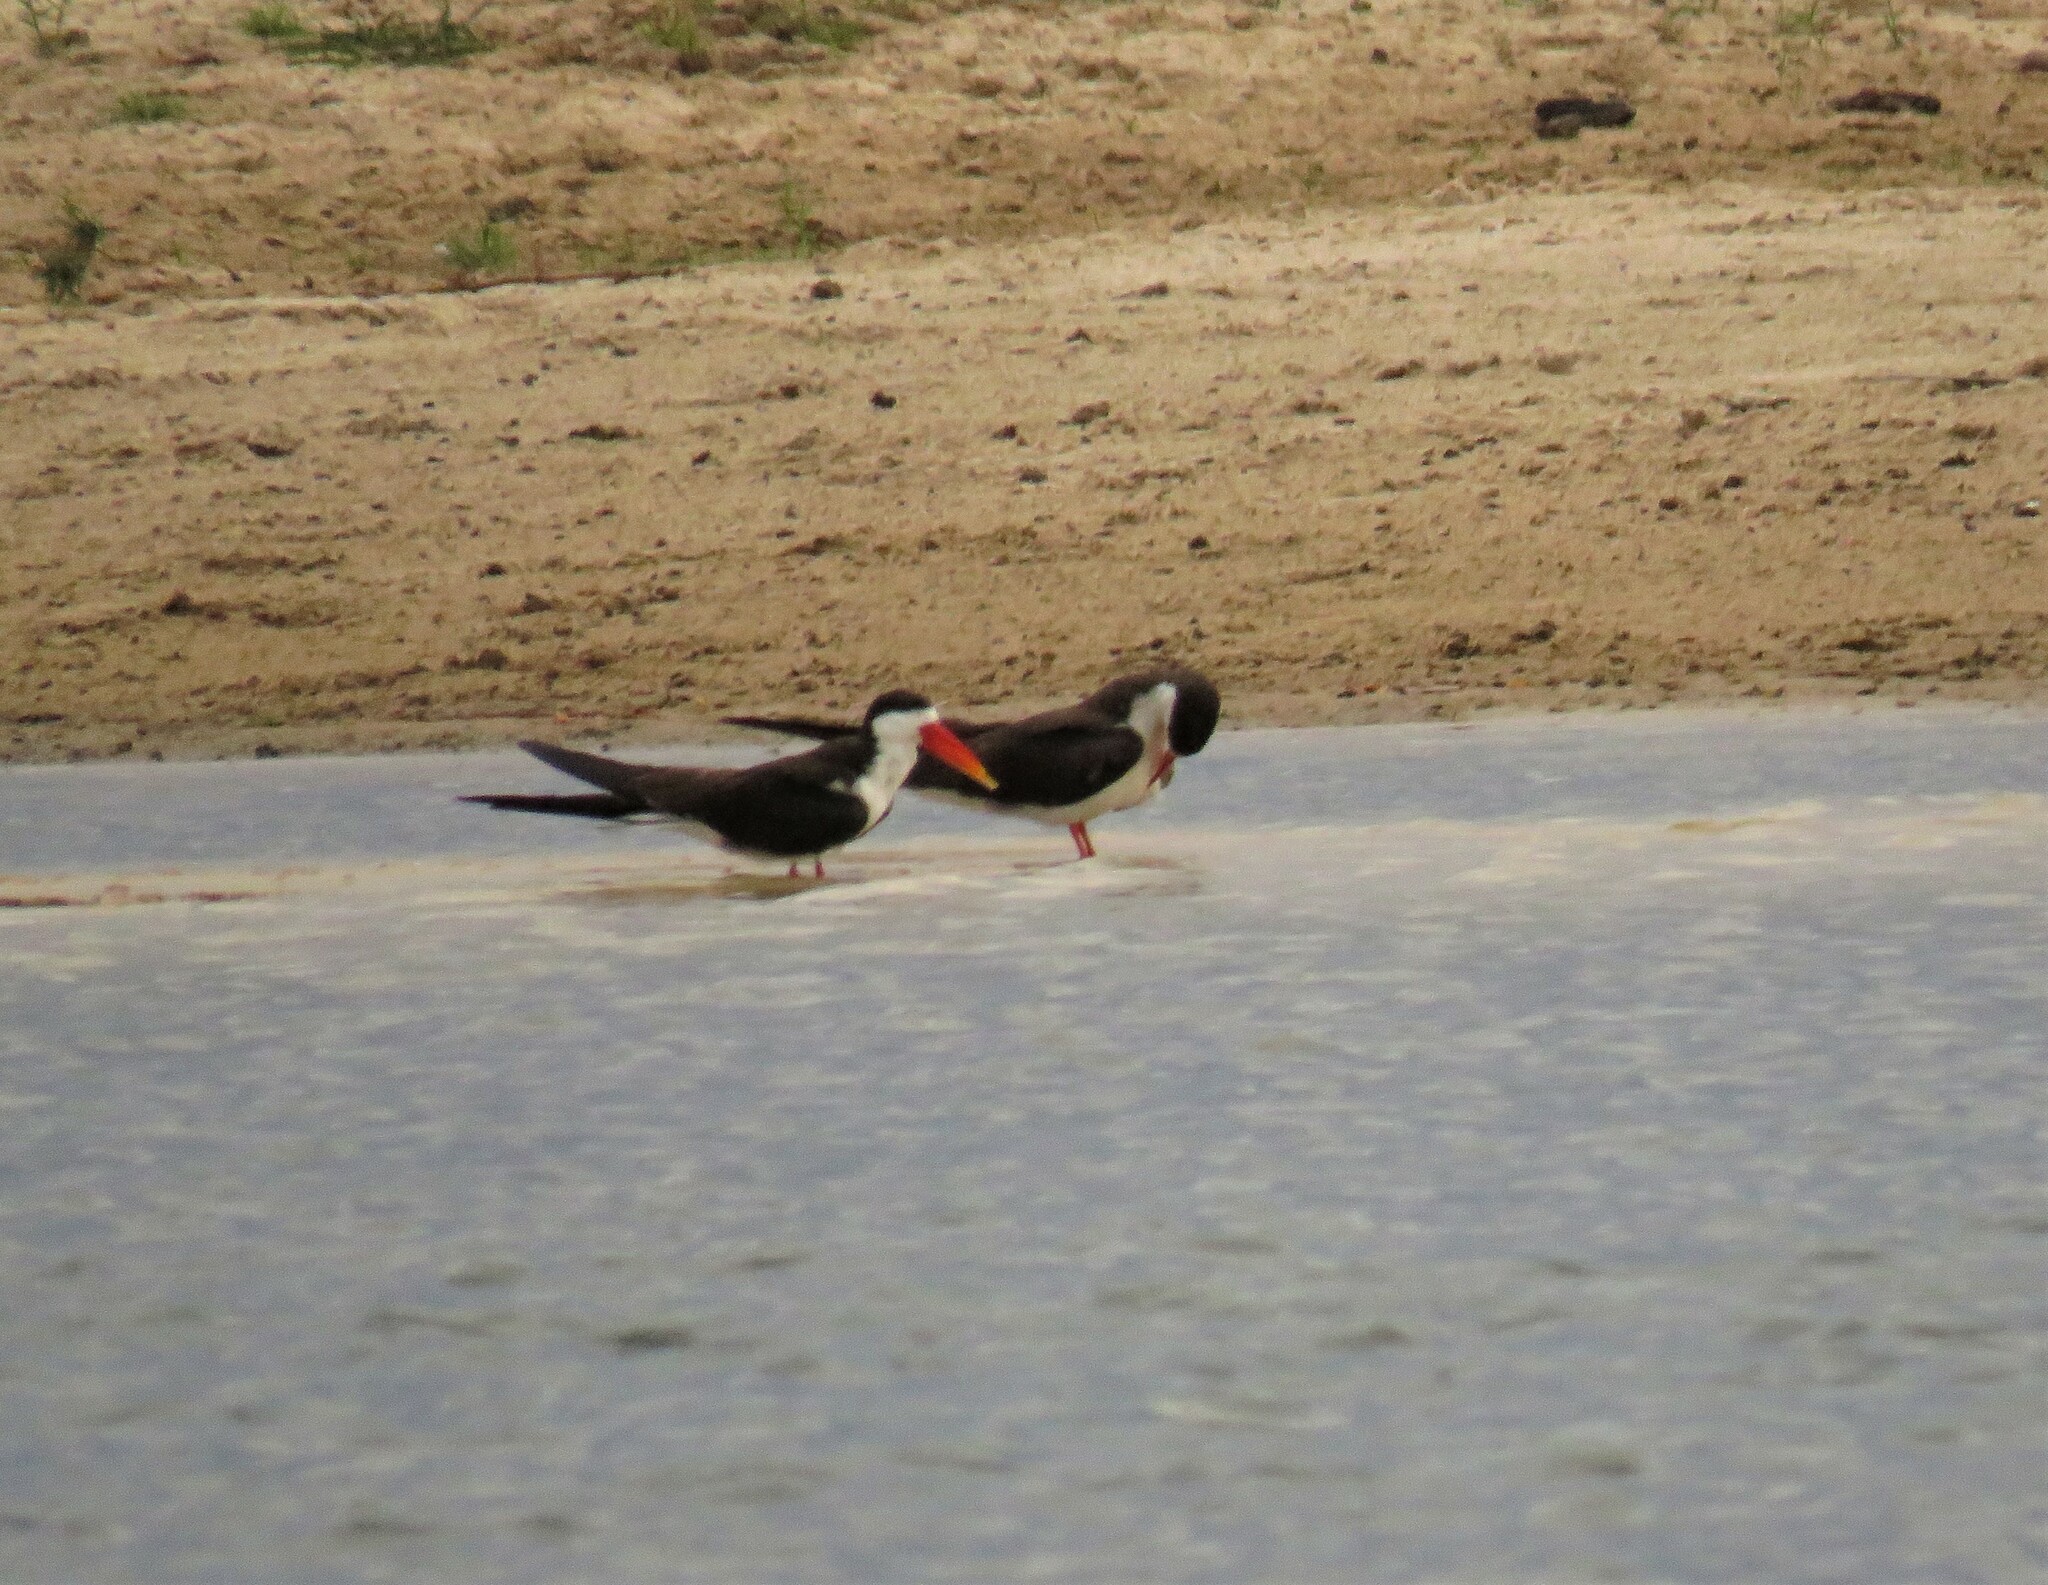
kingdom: Animalia
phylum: Chordata
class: Aves
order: Charadriiformes
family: Laridae
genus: Rynchops
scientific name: Rynchops flavirostris
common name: African skimmer
